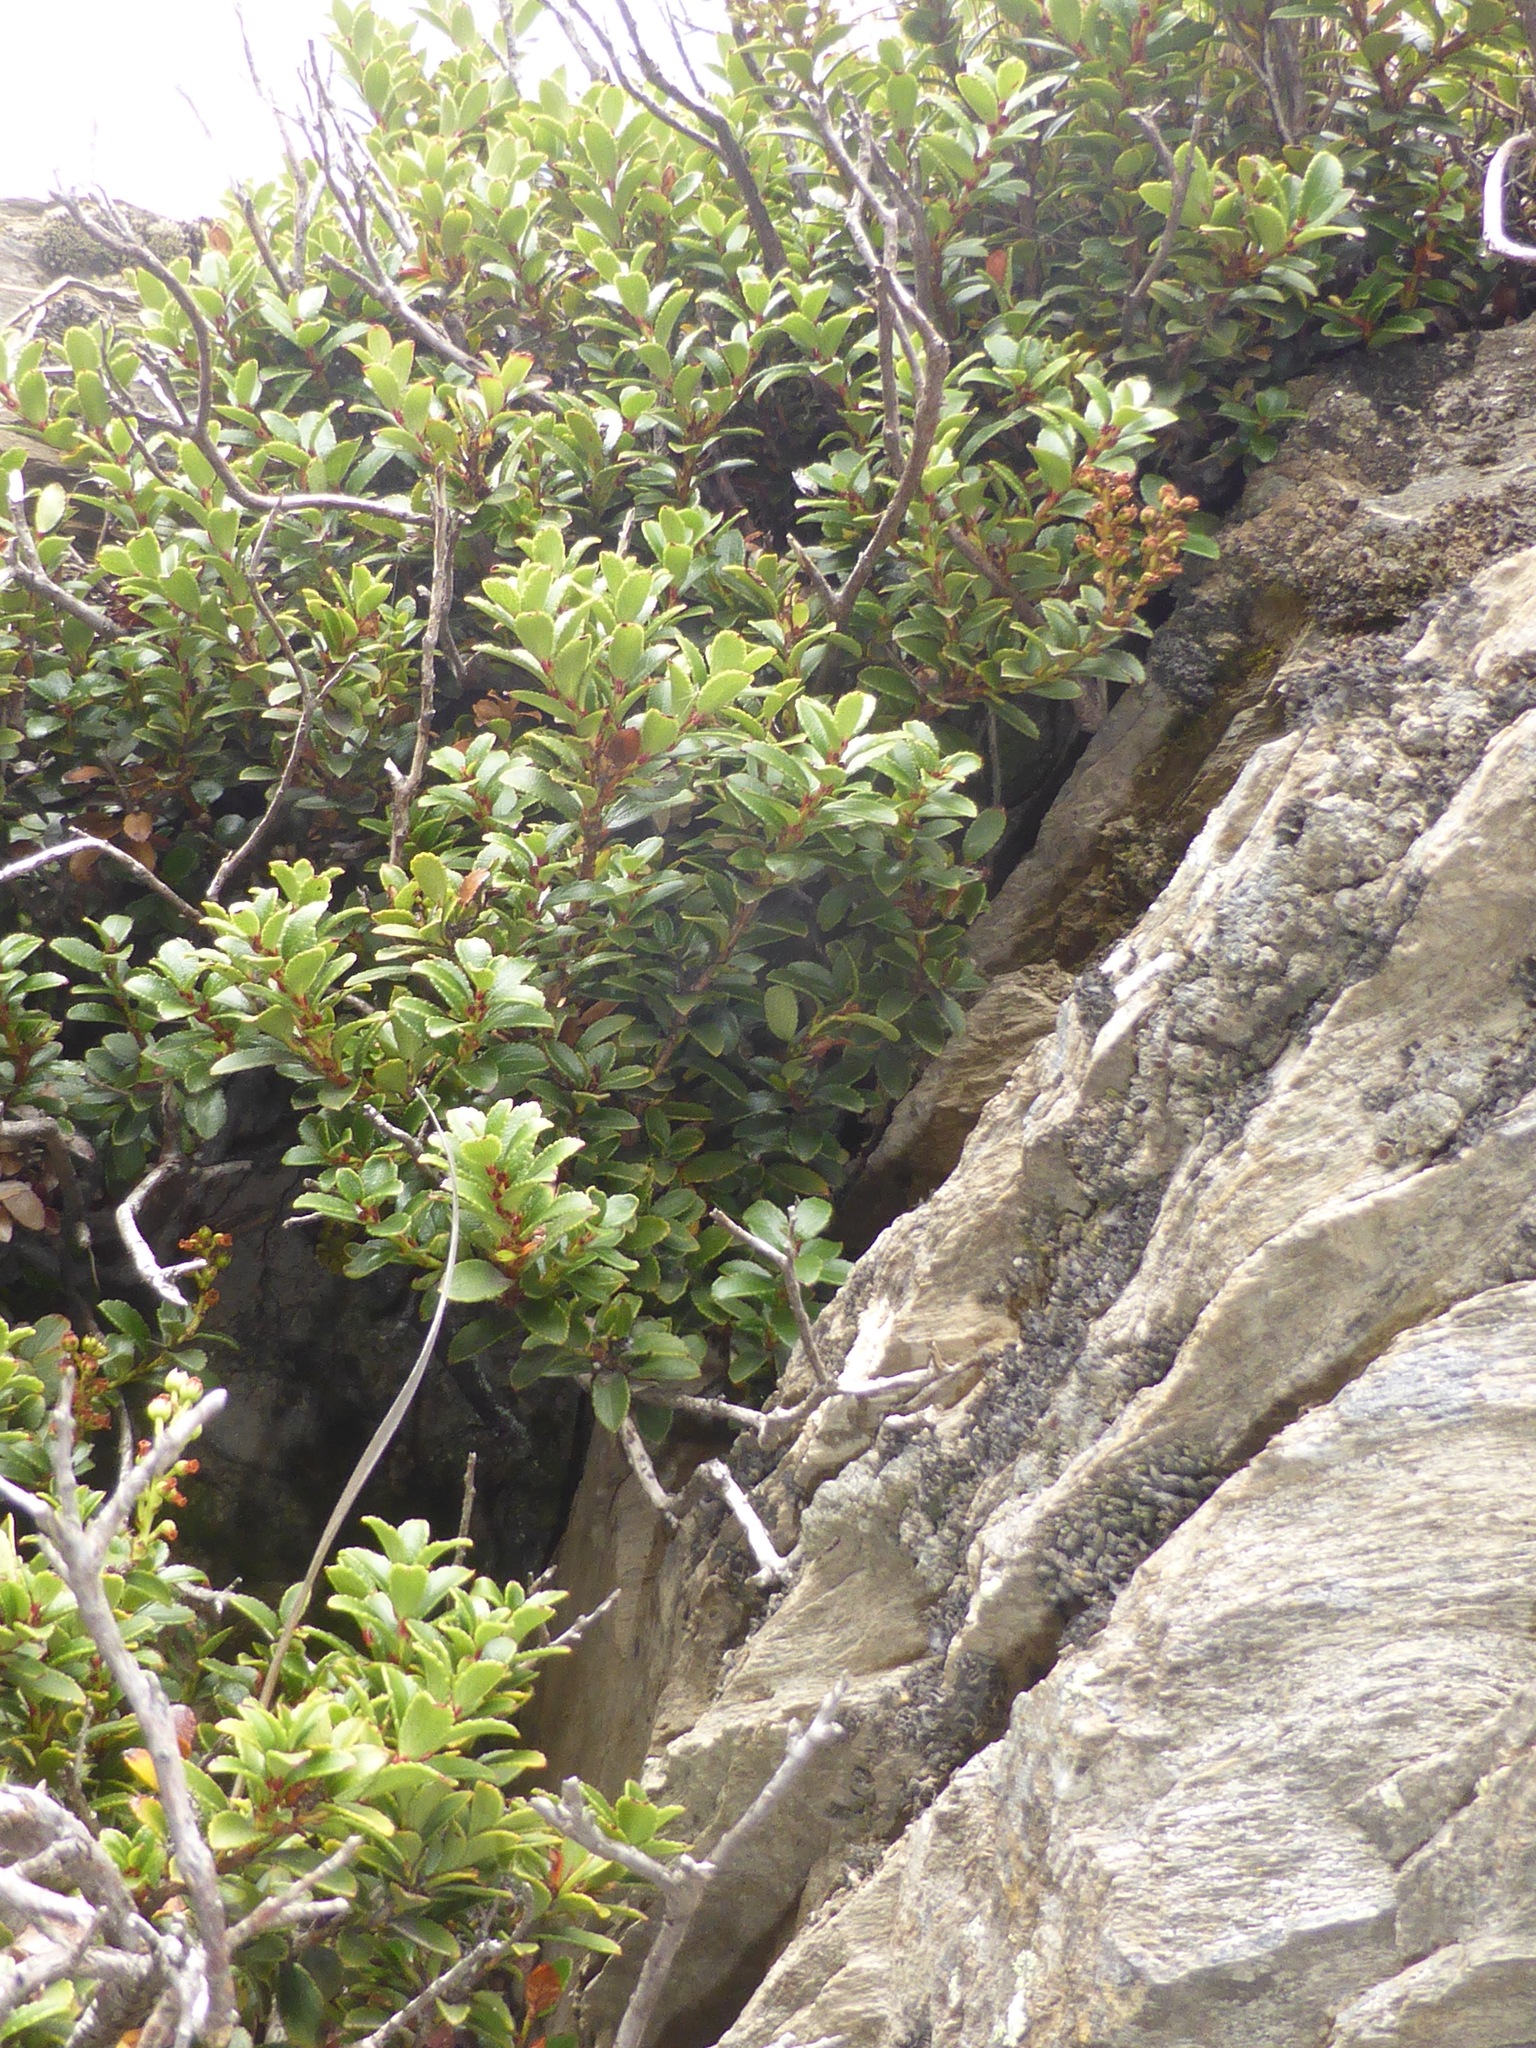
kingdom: Plantae
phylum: Tracheophyta
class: Magnoliopsida
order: Ericales
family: Ericaceae
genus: Gaultheria
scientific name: Gaultheria crassa
